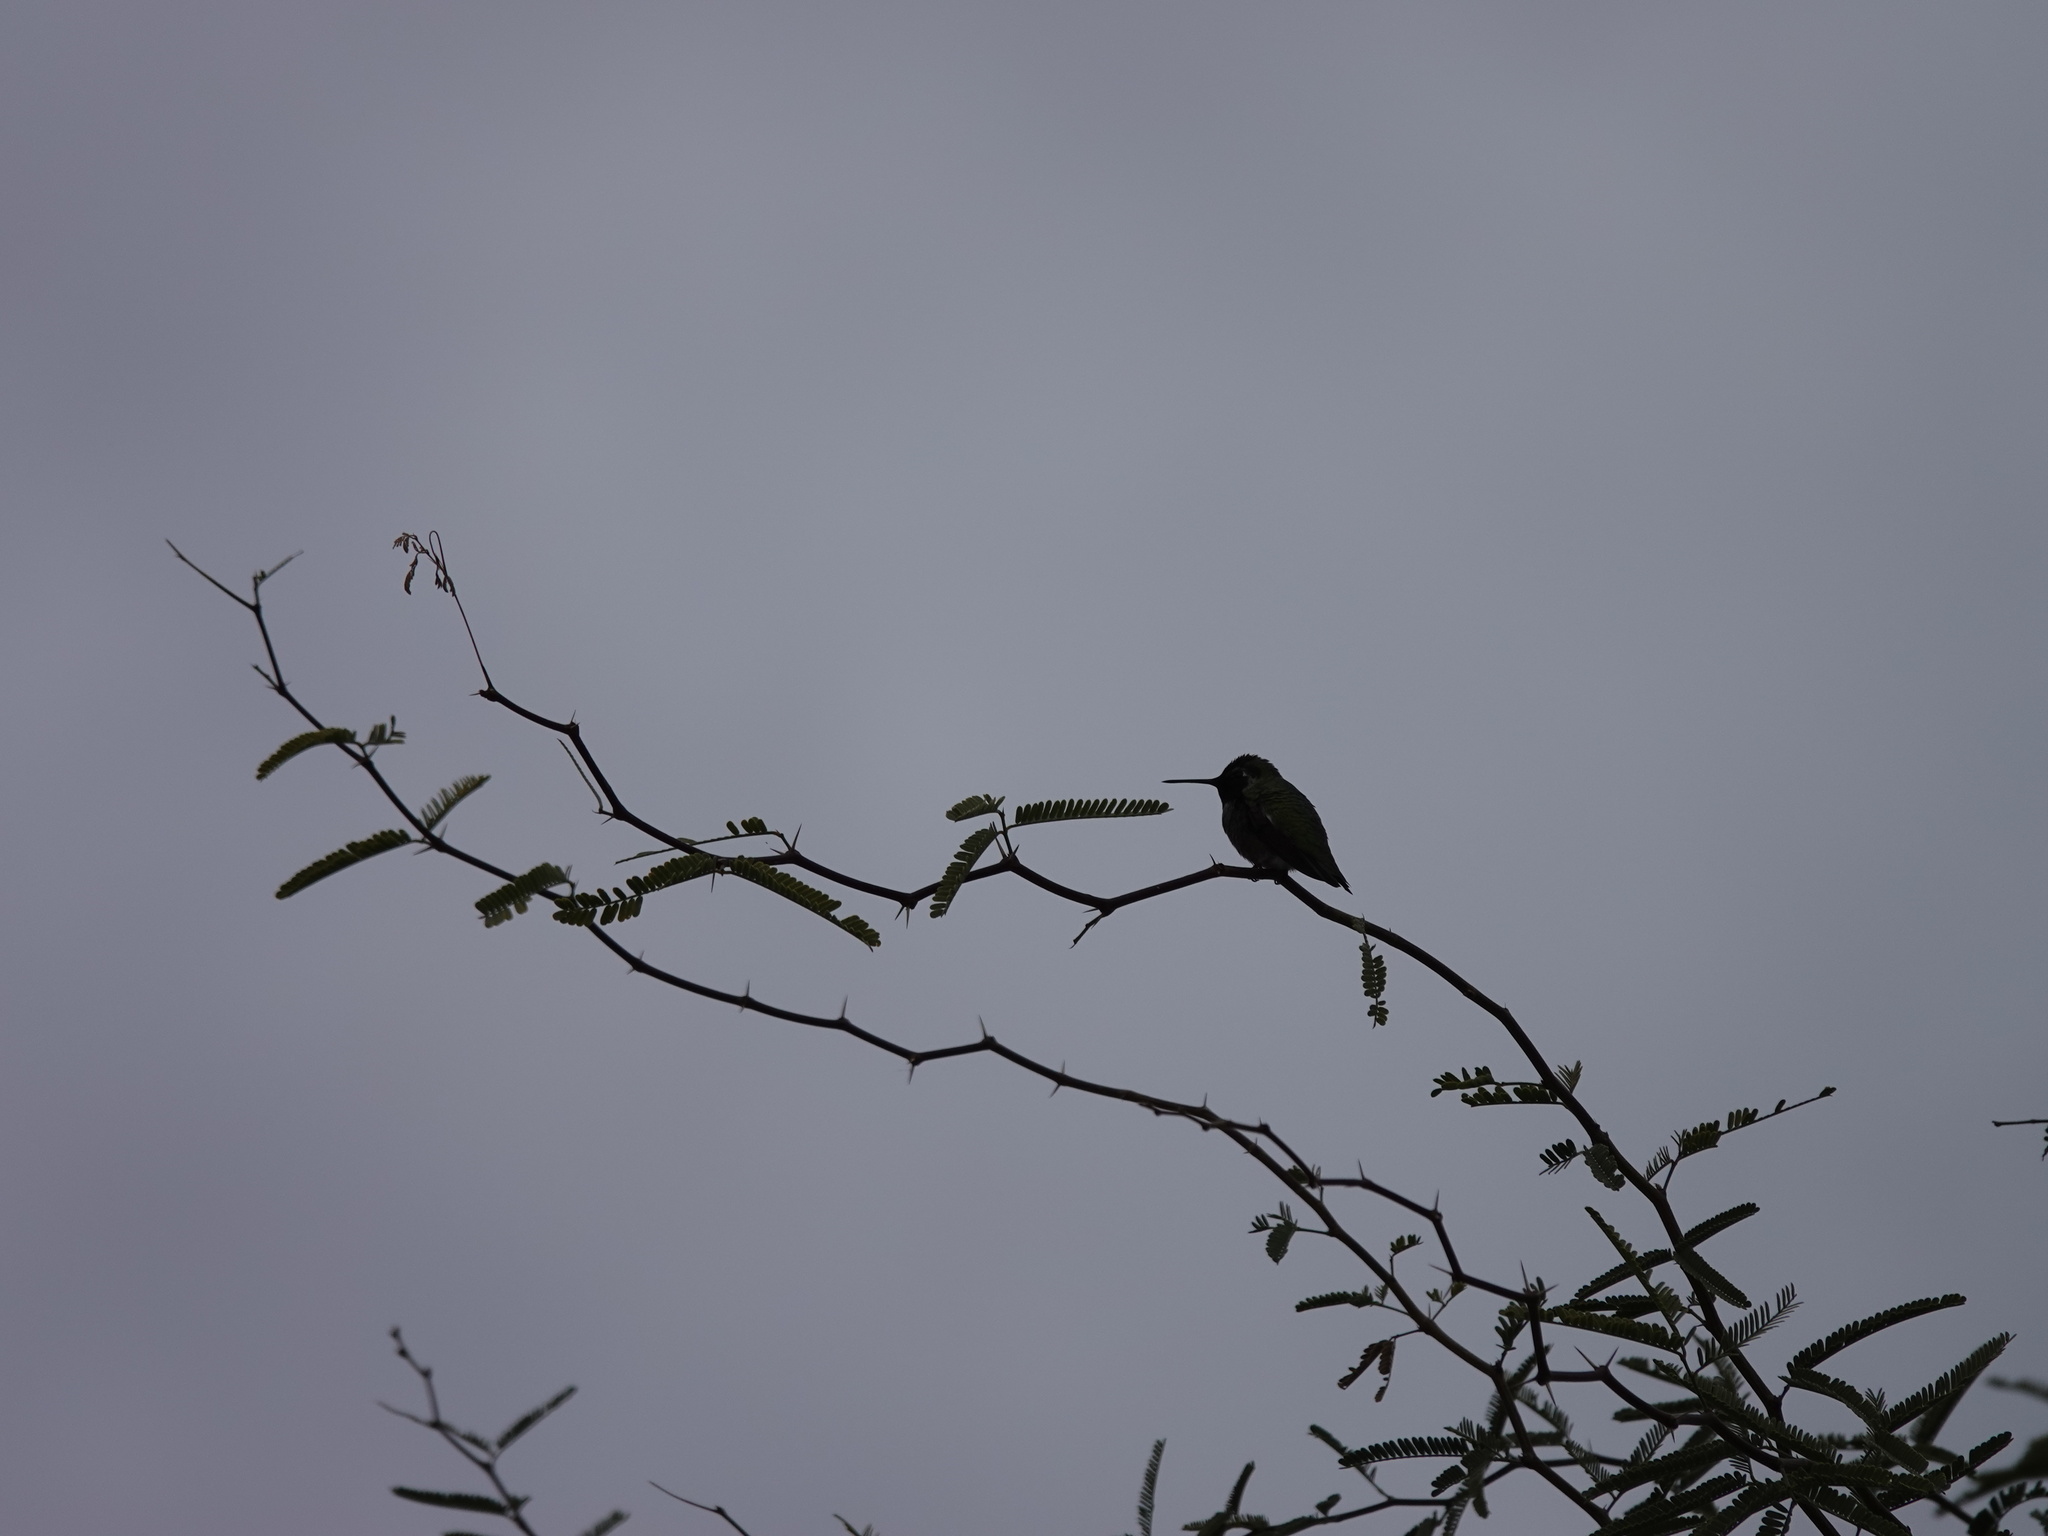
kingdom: Animalia
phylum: Chordata
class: Aves
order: Apodiformes
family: Trochilidae
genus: Calypte
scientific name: Calypte anna
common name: Anna's hummingbird
